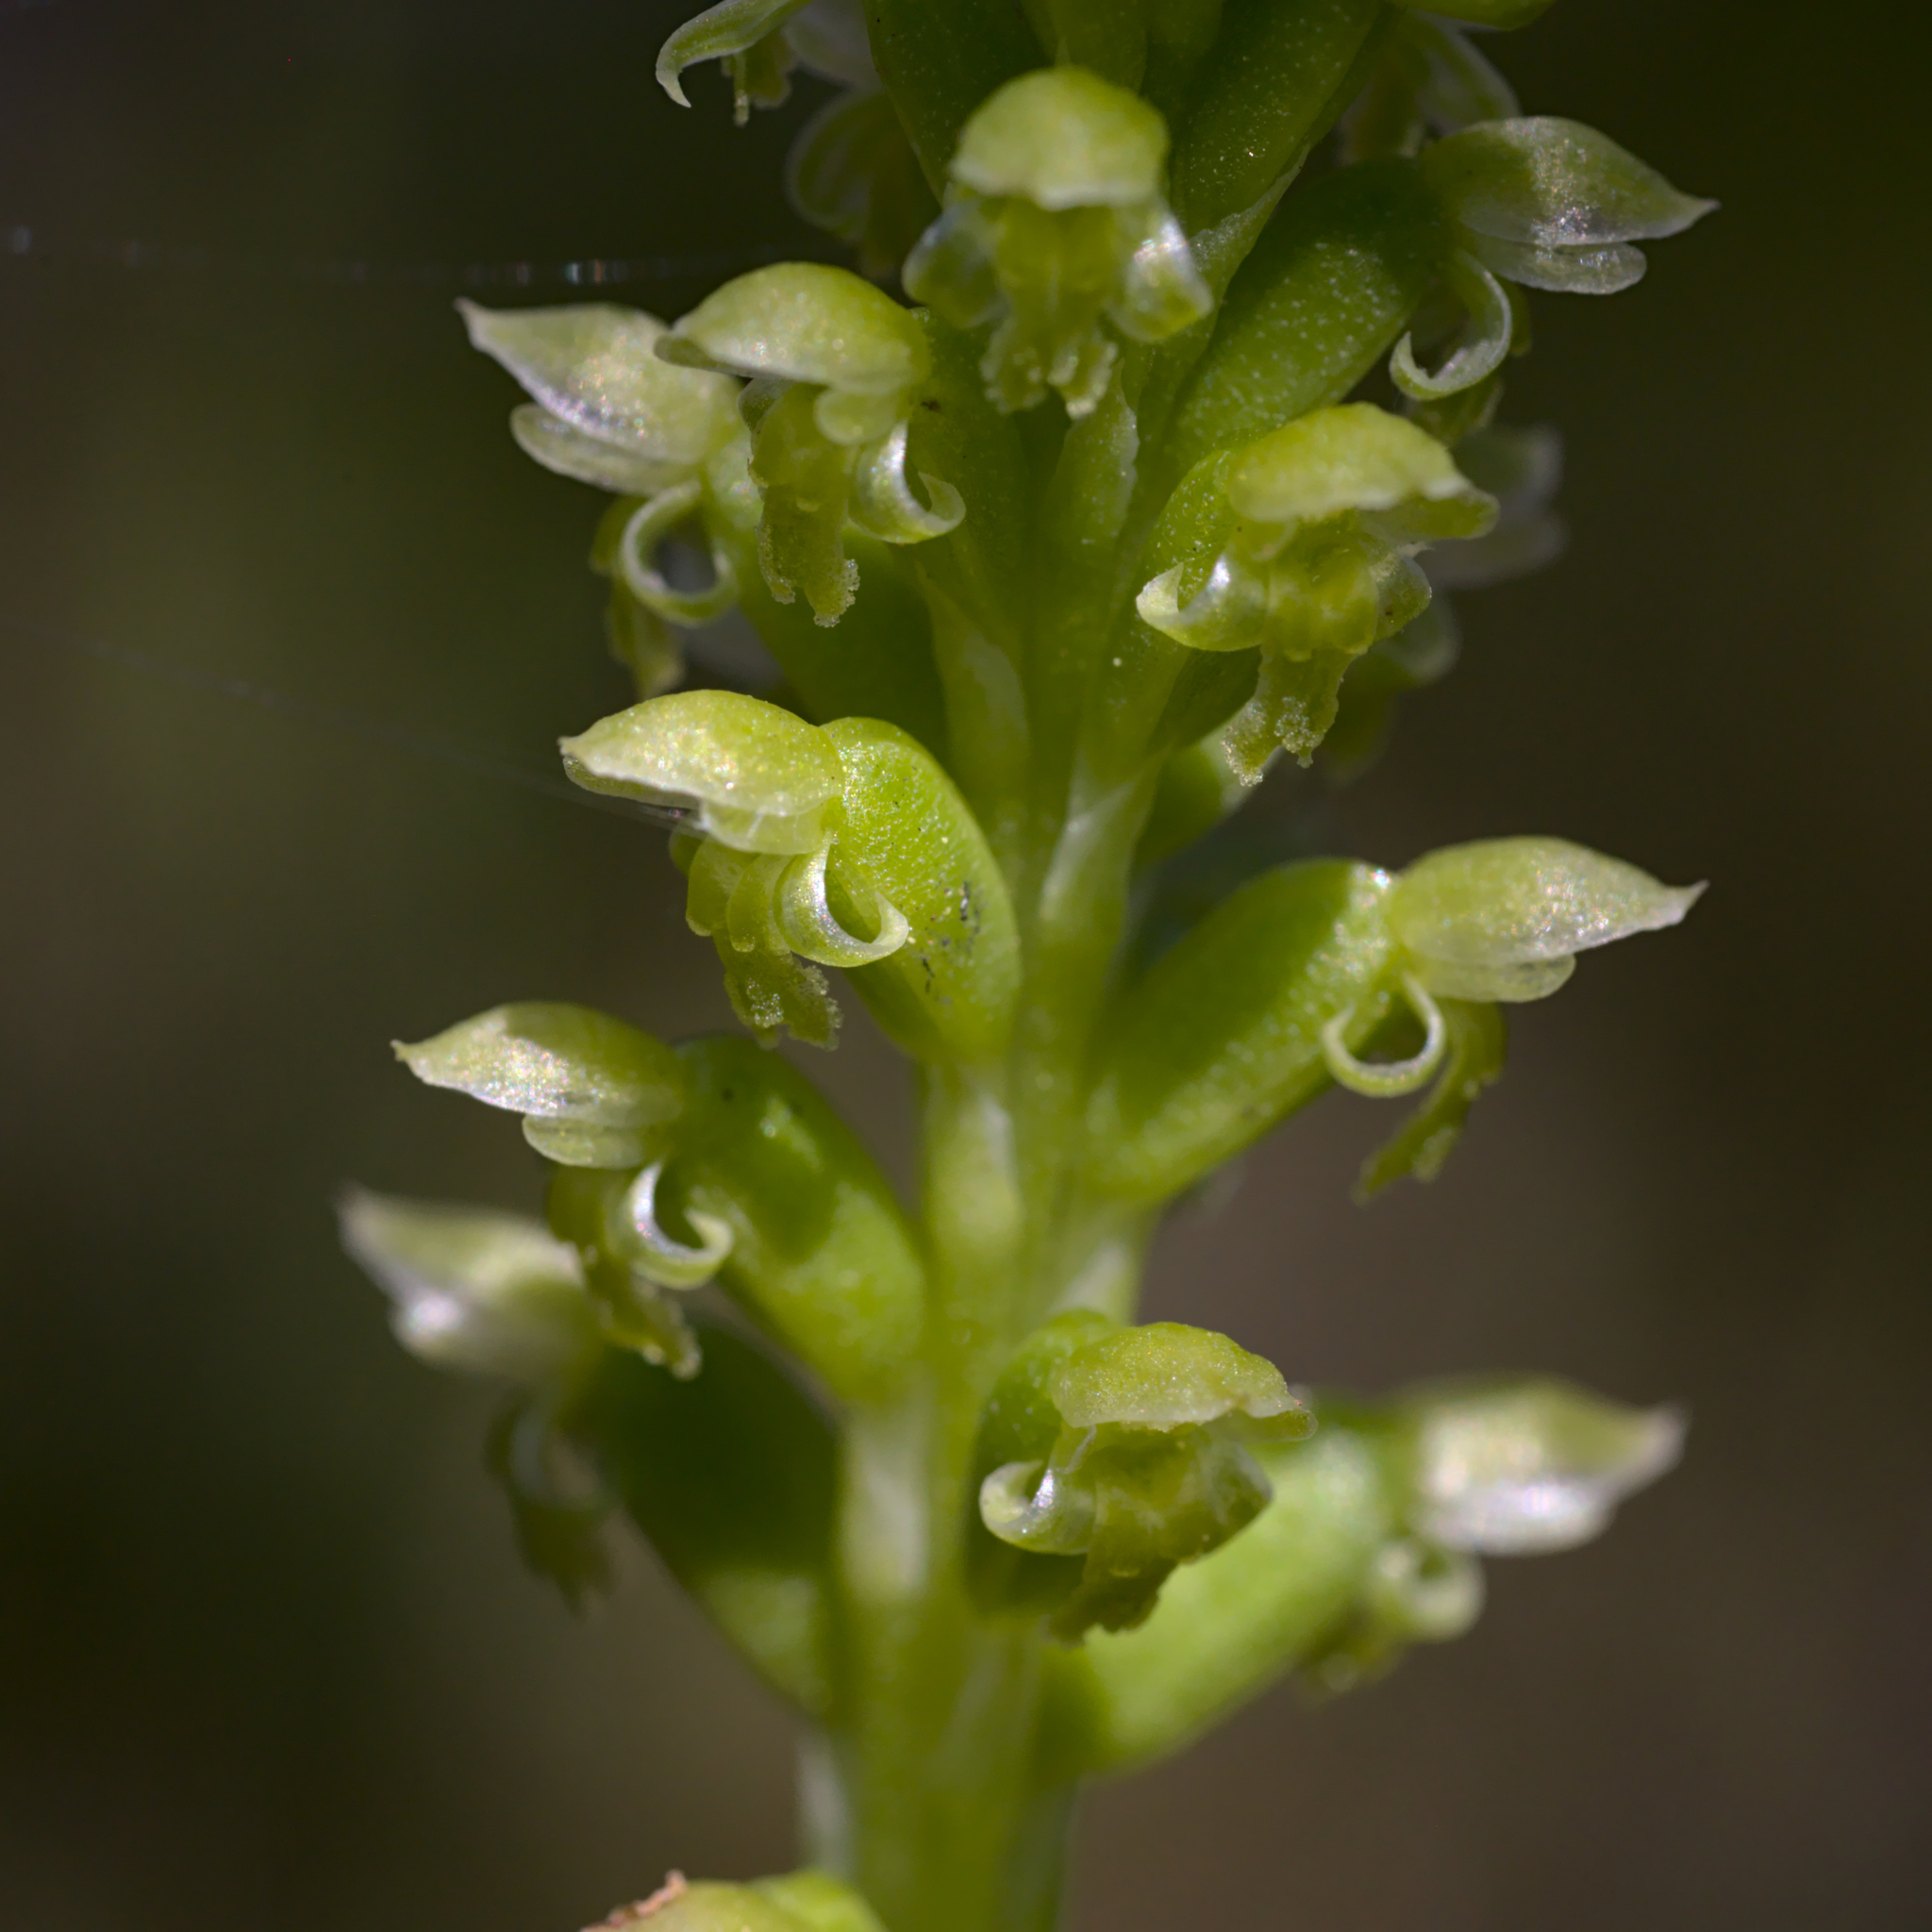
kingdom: Plantae
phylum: Tracheophyta
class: Liliopsida
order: Asparagales
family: Orchidaceae
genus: Microtis
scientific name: Microtis media
